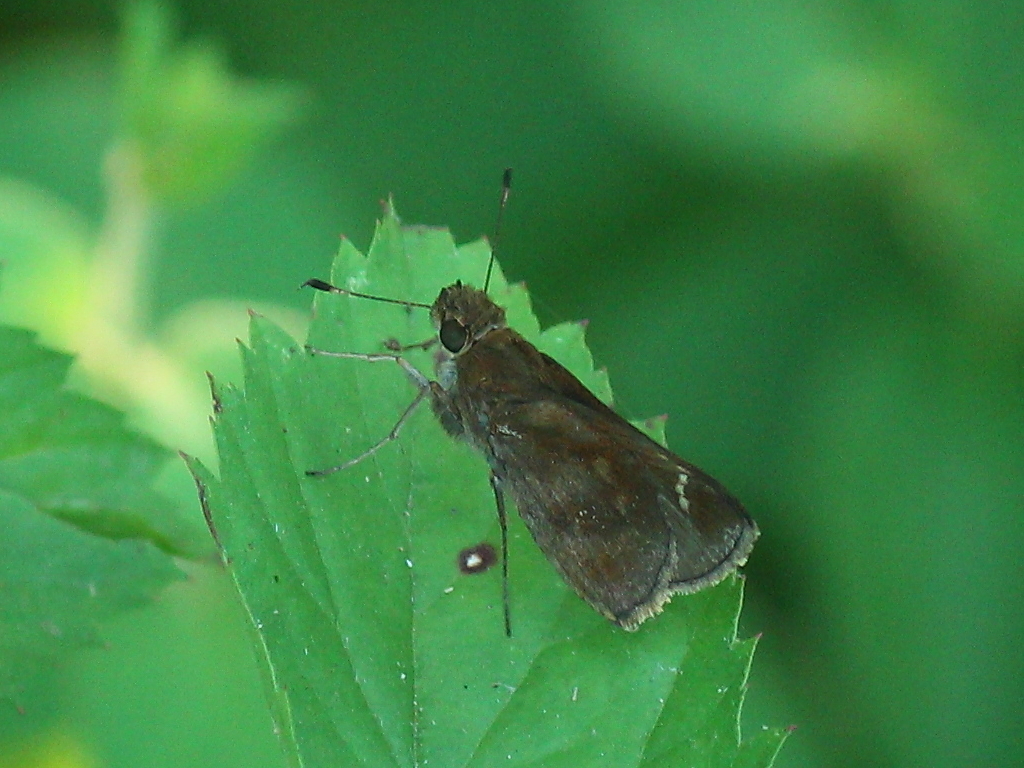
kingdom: Animalia
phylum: Arthropoda
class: Insecta
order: Lepidoptera
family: Hesperiidae
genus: Lerema
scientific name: Lerema accius
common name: Clouded skipper
